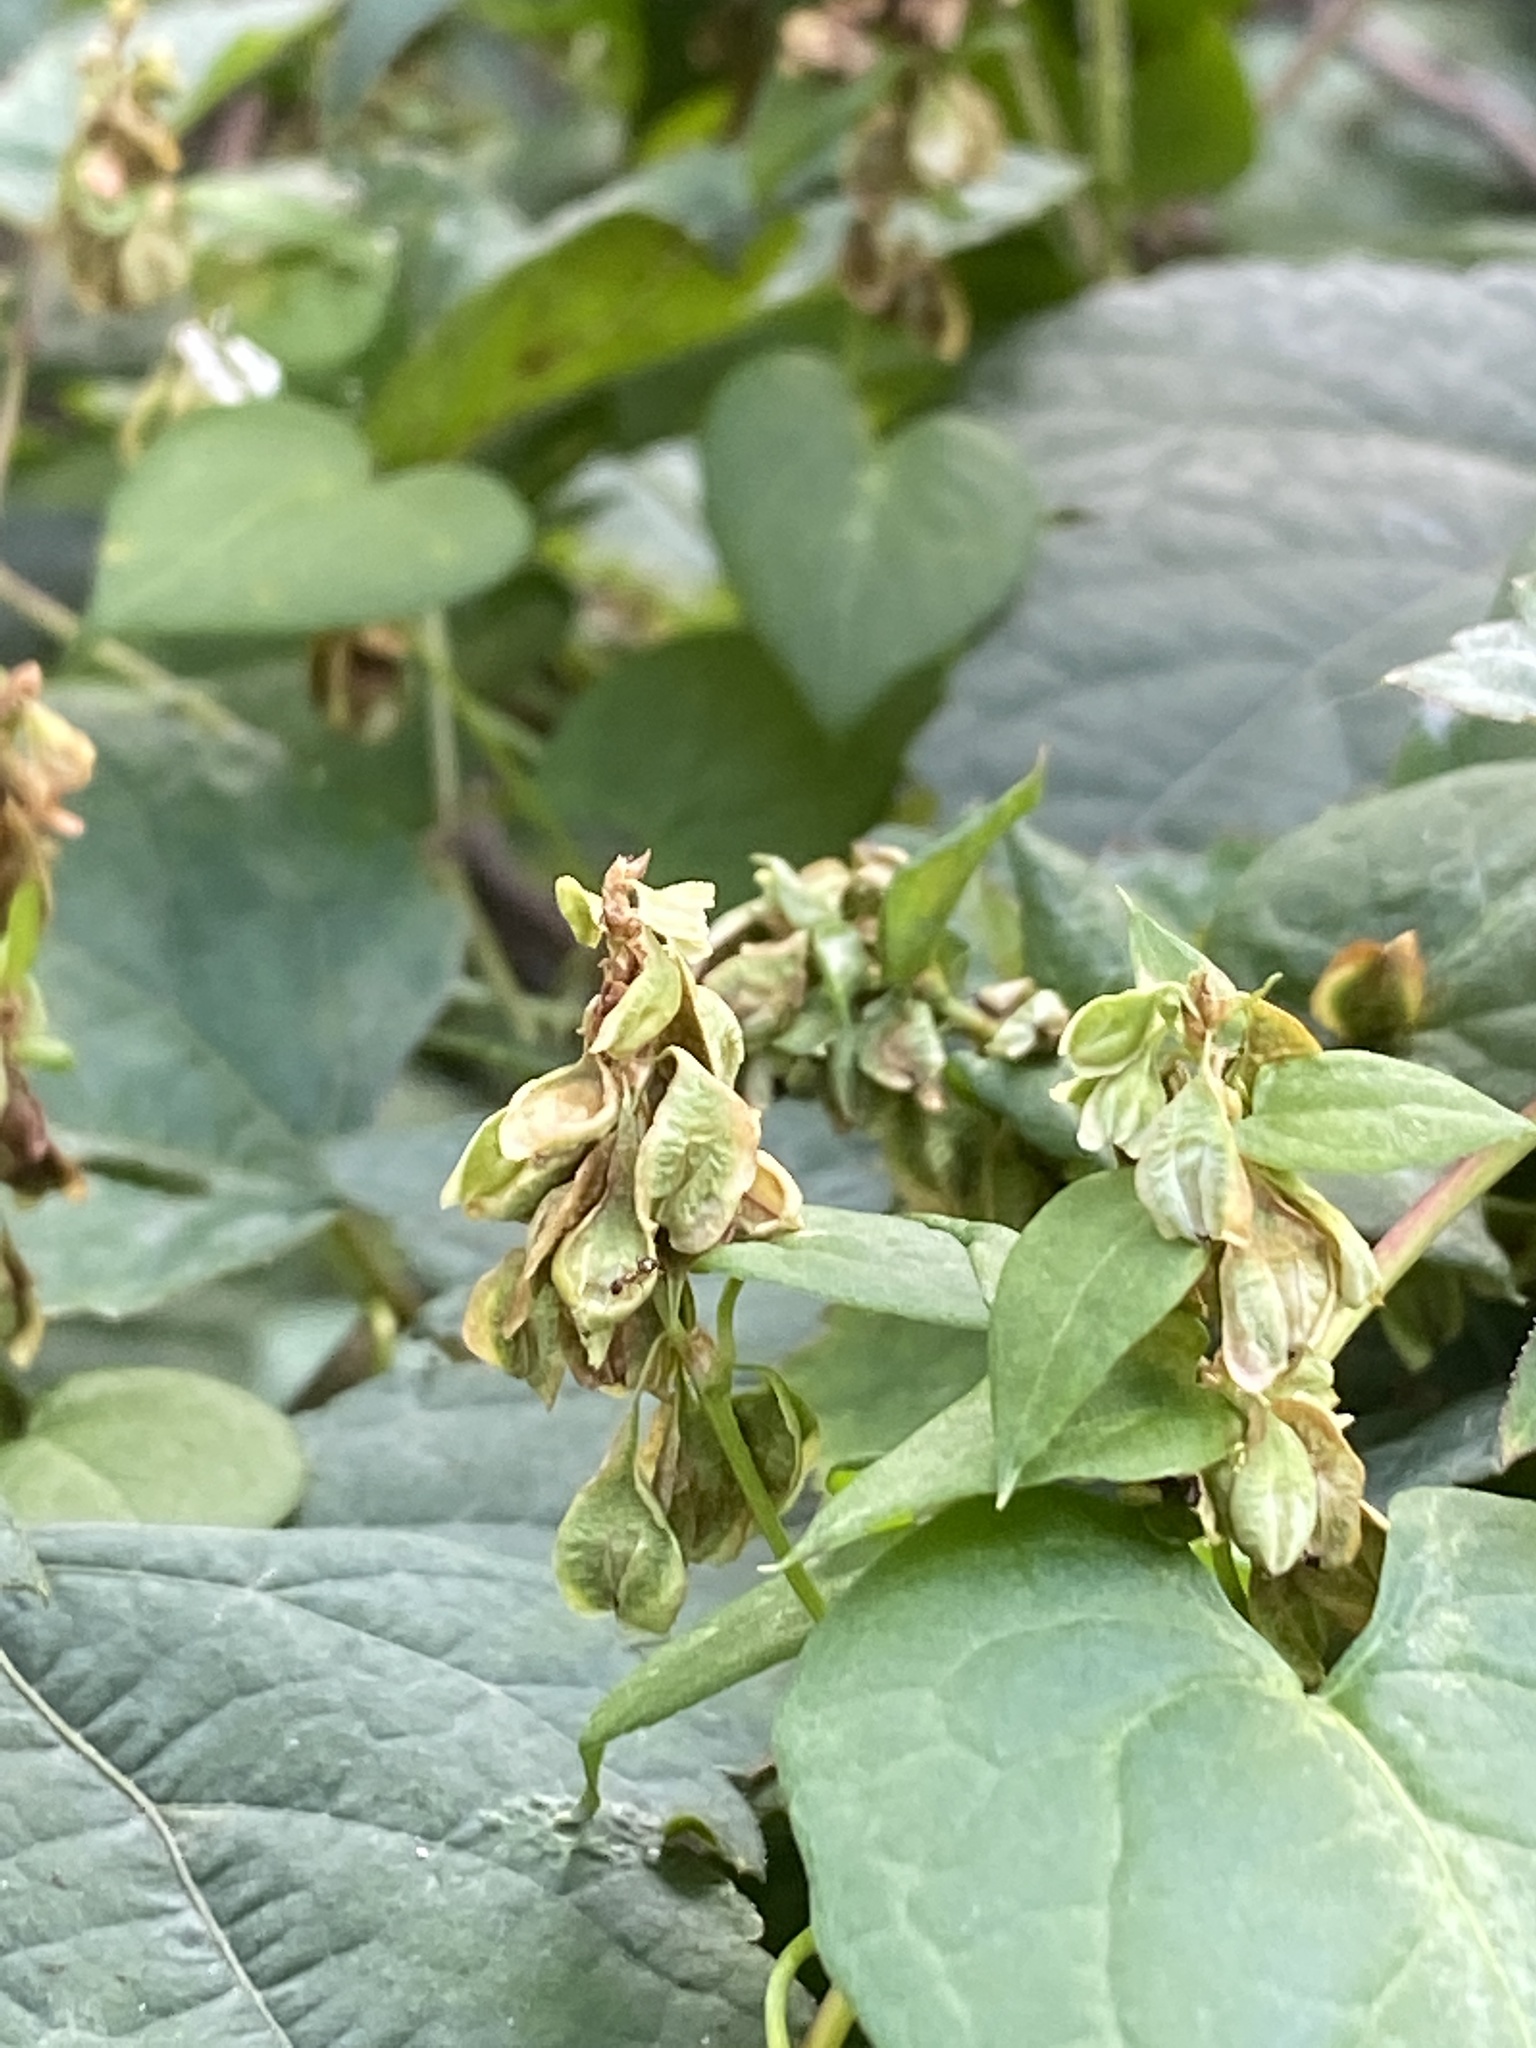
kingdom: Plantae
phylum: Tracheophyta
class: Magnoliopsida
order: Caryophyllales
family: Polygonaceae
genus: Fallopia
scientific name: Fallopia scandens
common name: Climbing false buckwheat
